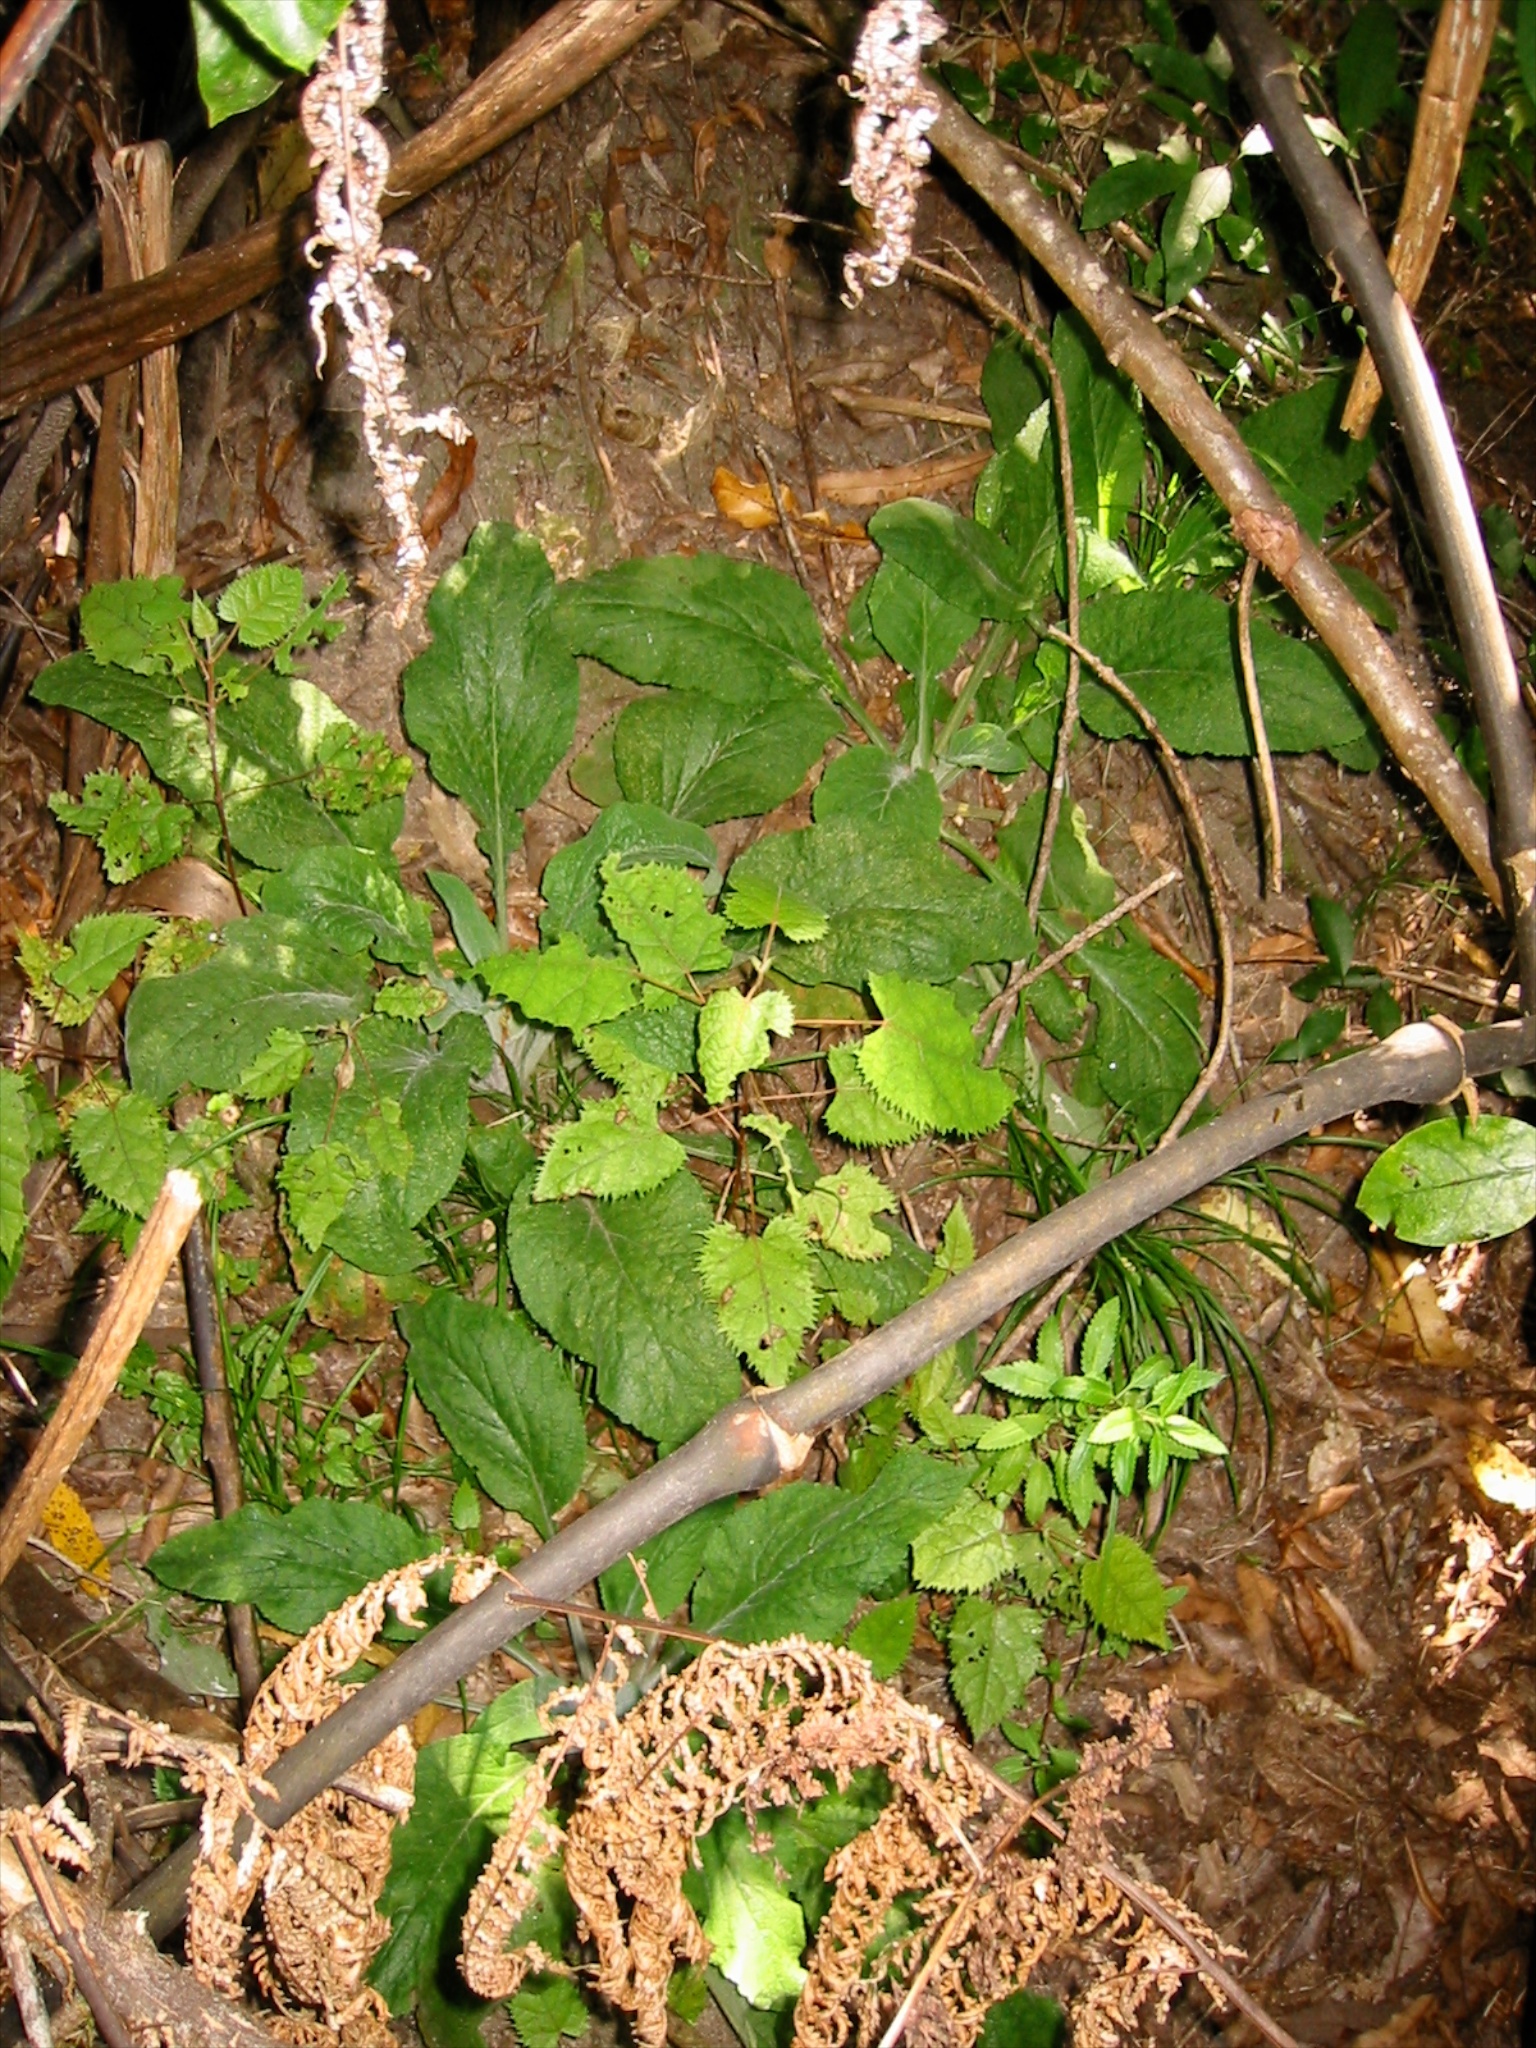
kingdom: Plantae
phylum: Tracheophyta
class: Magnoliopsida
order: Lamiales
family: Plantaginaceae
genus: Digitalis
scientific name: Digitalis purpurea
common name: Foxglove
